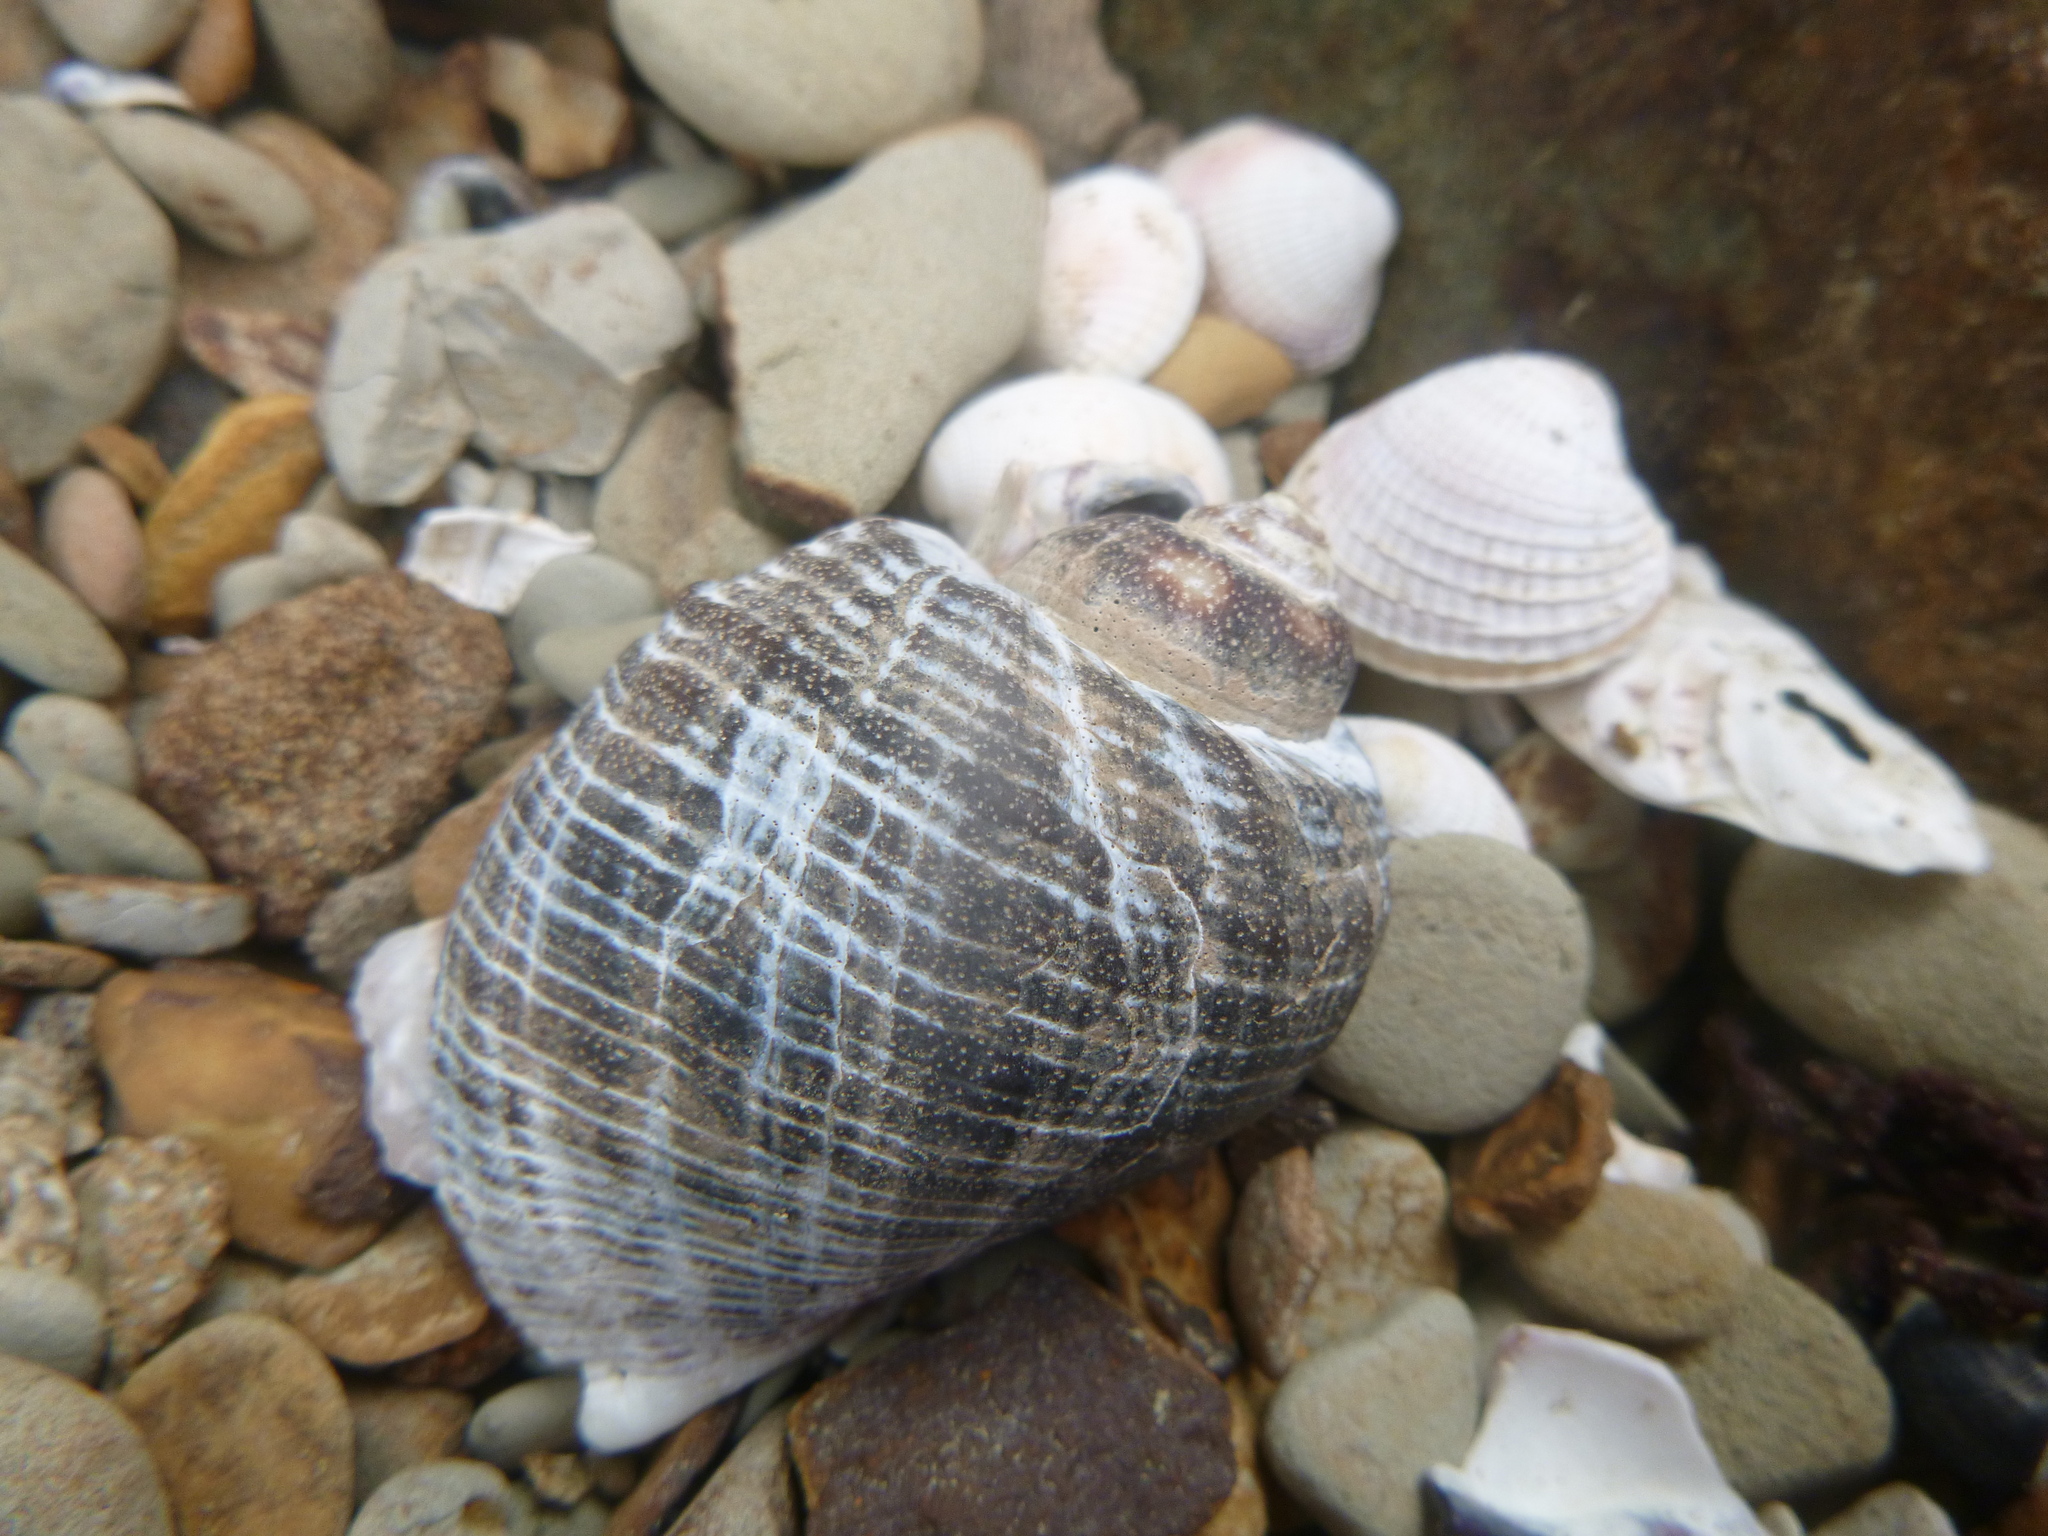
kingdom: Animalia
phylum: Mollusca
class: Gastropoda
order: Neogastropoda
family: Muricidae
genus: Haustrum
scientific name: Haustrum haustorium
